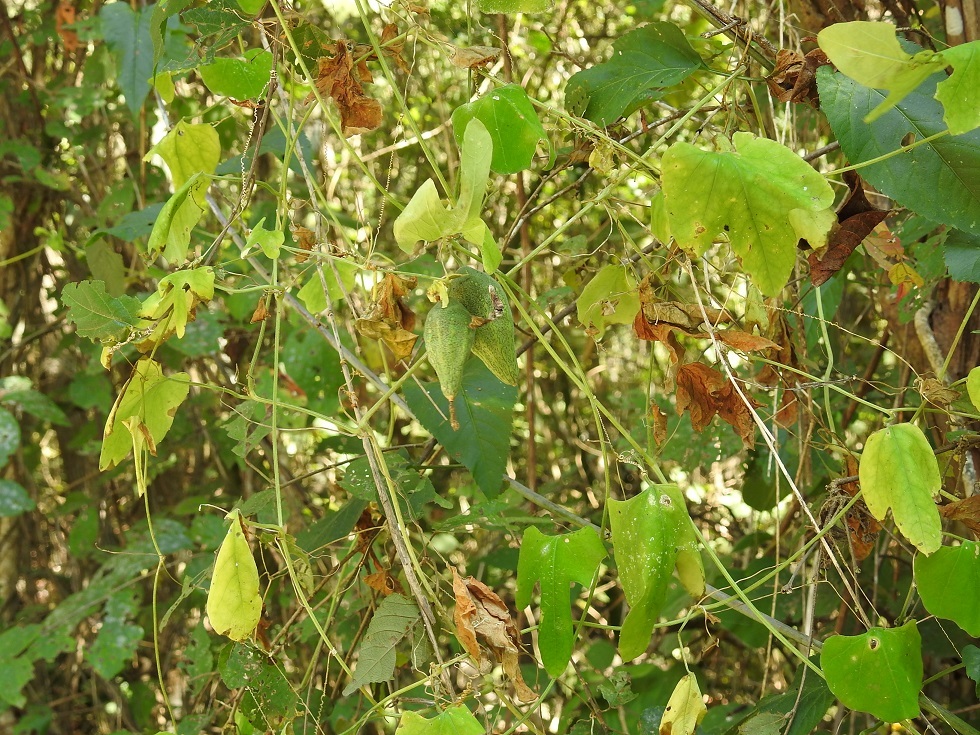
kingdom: Plantae
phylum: Tracheophyta
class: Magnoliopsida
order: Cucurbitales
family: Cucurbitaceae
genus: Schizocarpum
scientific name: Schizocarpum longisepalum
